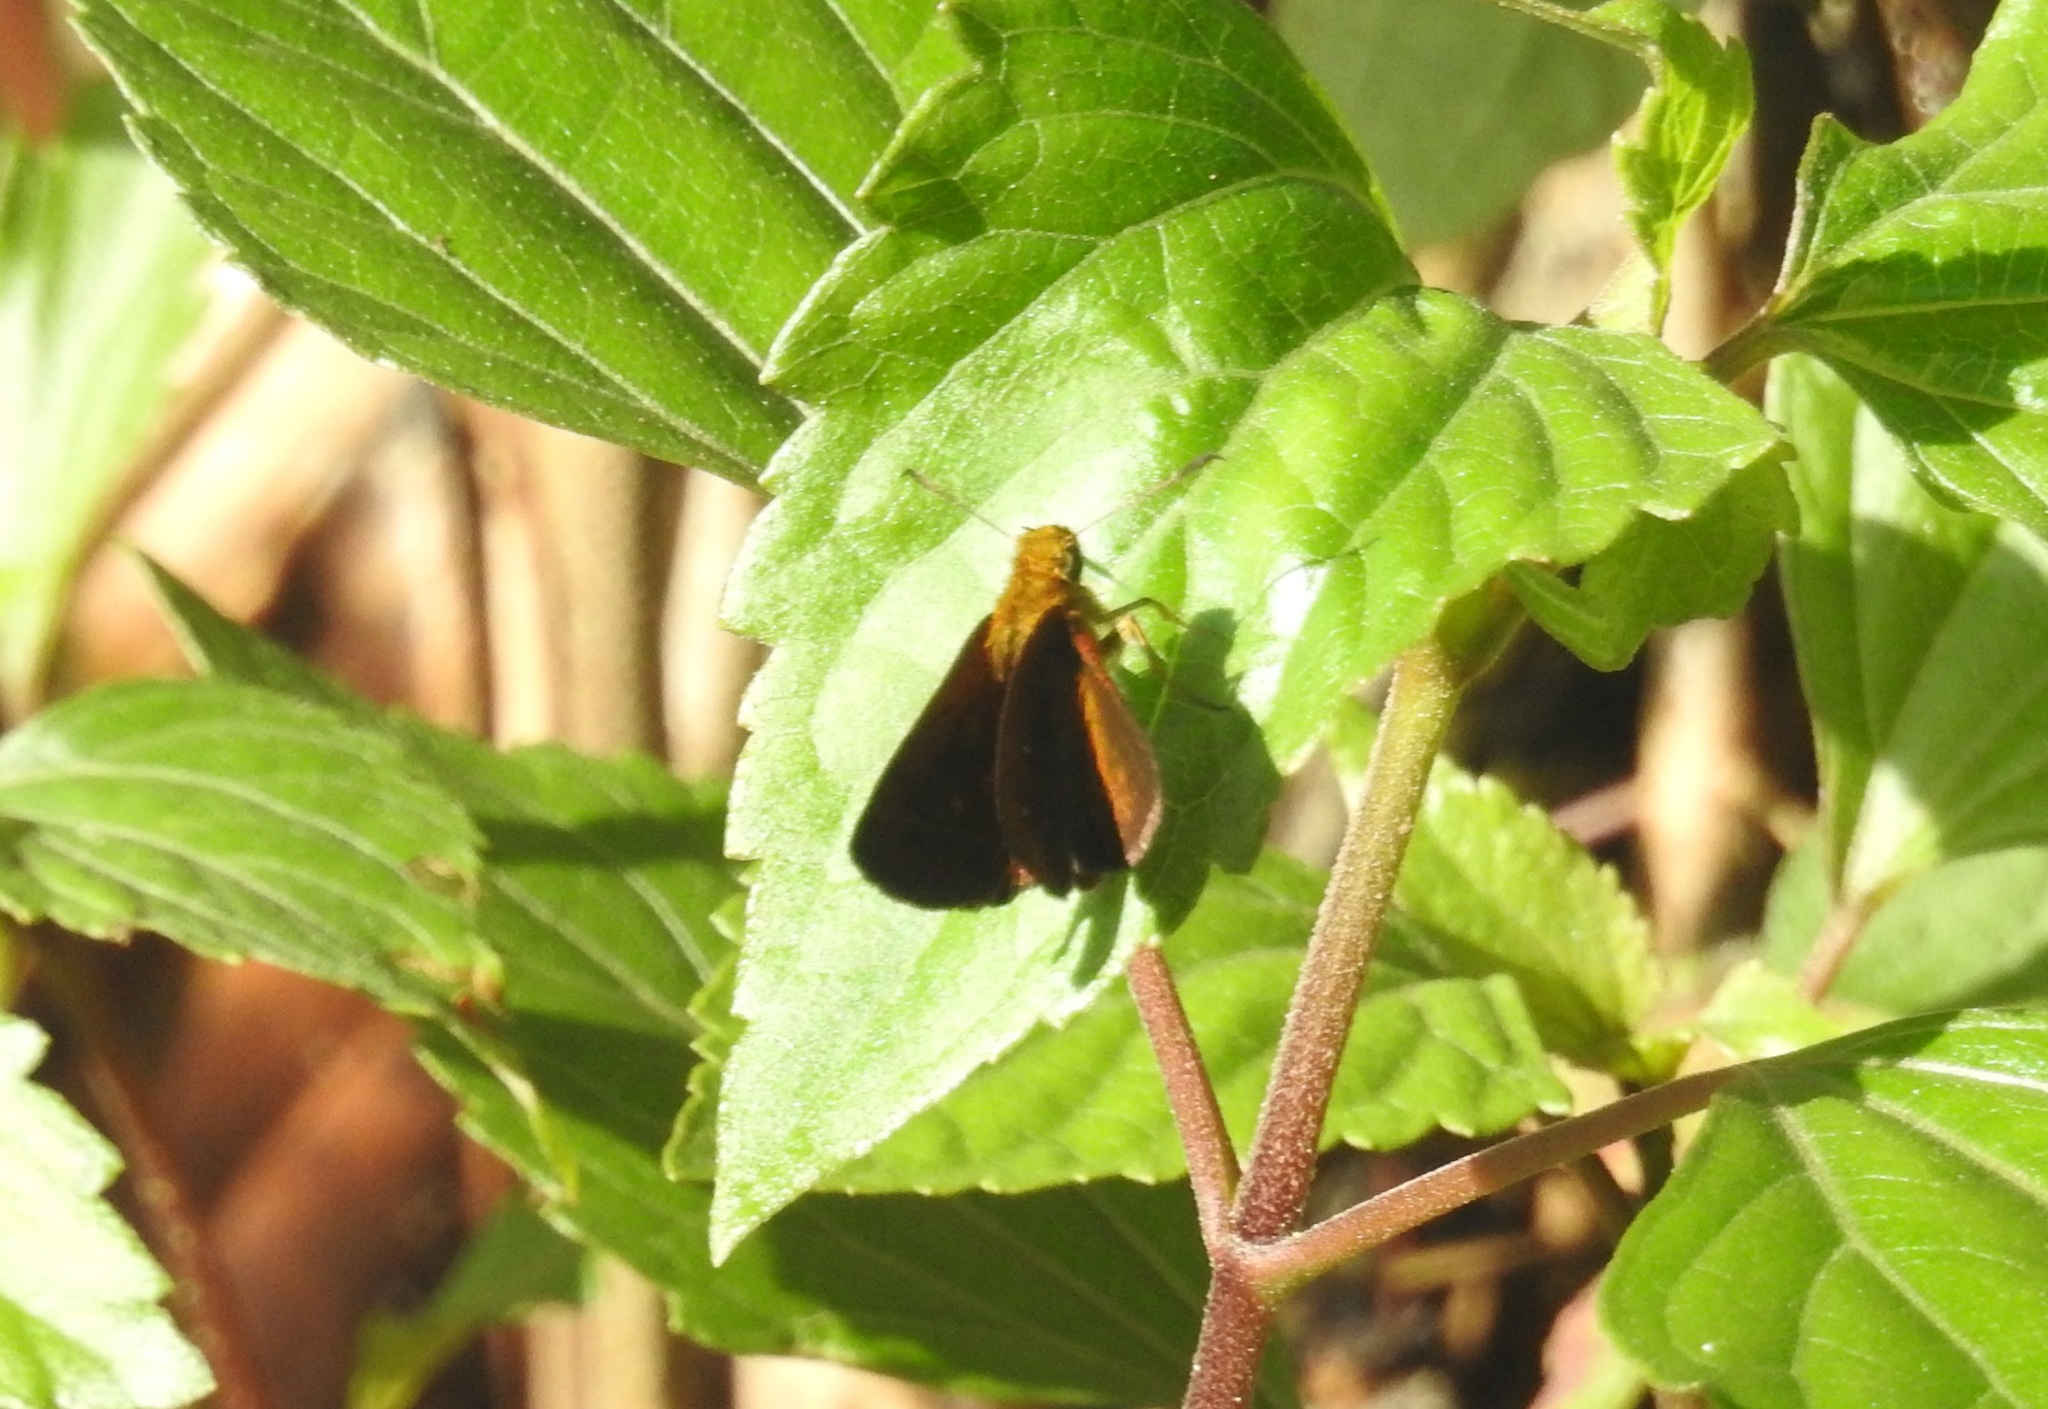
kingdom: Animalia
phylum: Arthropoda
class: Insecta
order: Lepidoptera
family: Hesperiidae
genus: Iambrix
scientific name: Iambrix salsala
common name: Chestnut bob
